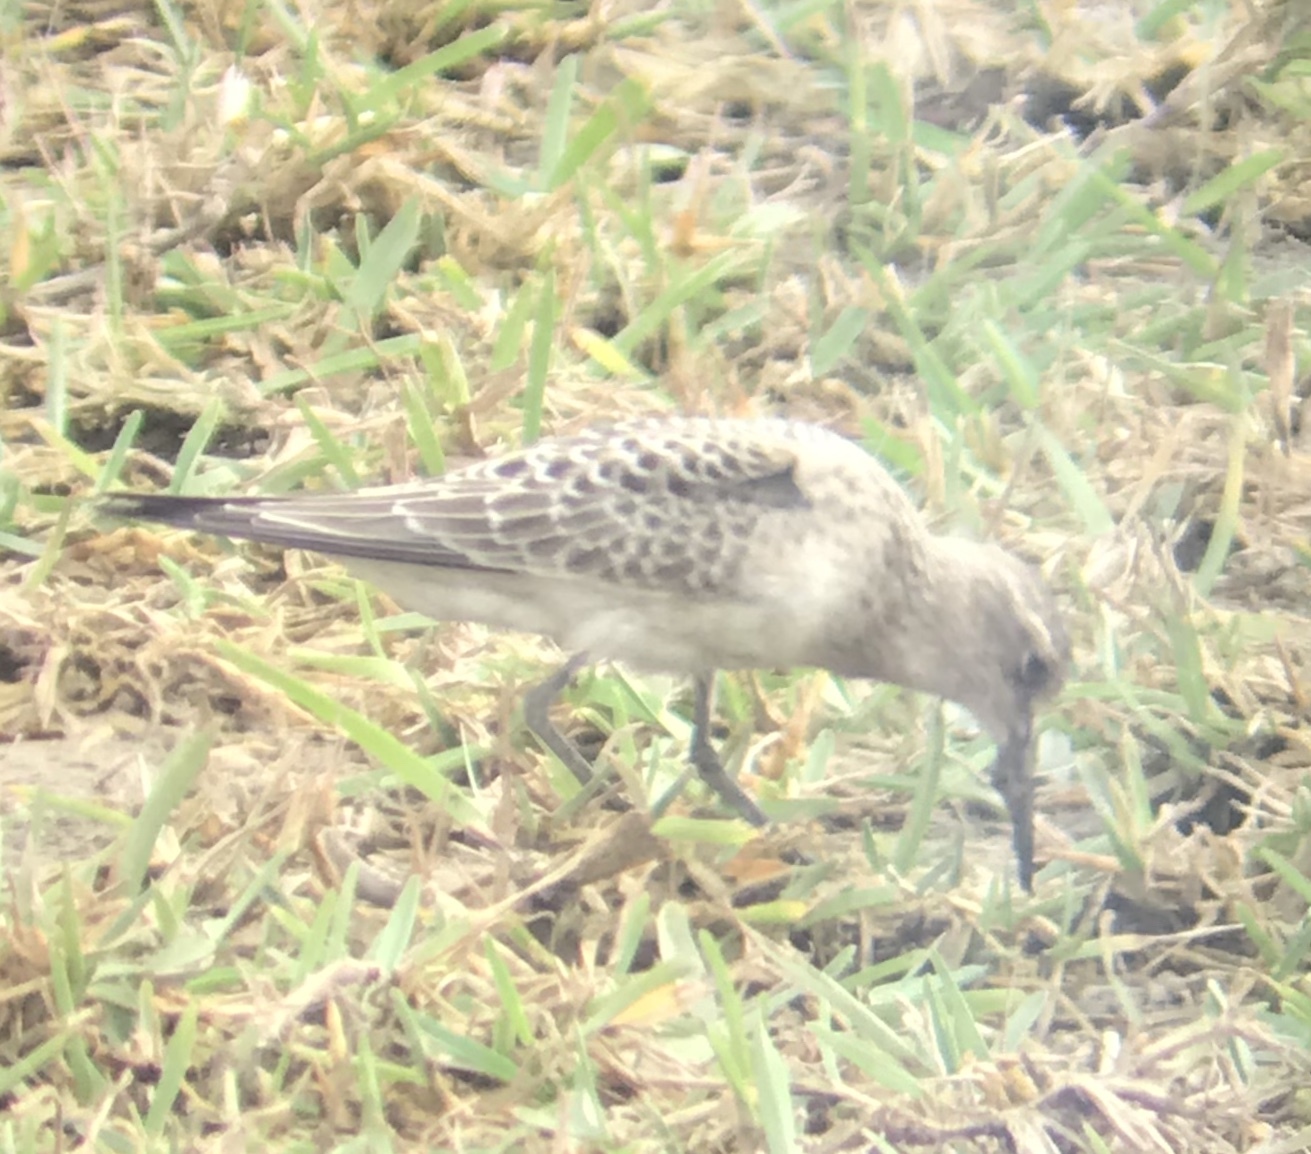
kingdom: Animalia
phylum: Chordata
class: Aves
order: Charadriiformes
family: Scolopacidae
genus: Calidris
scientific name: Calidris bairdii
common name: Baird's sandpiper
